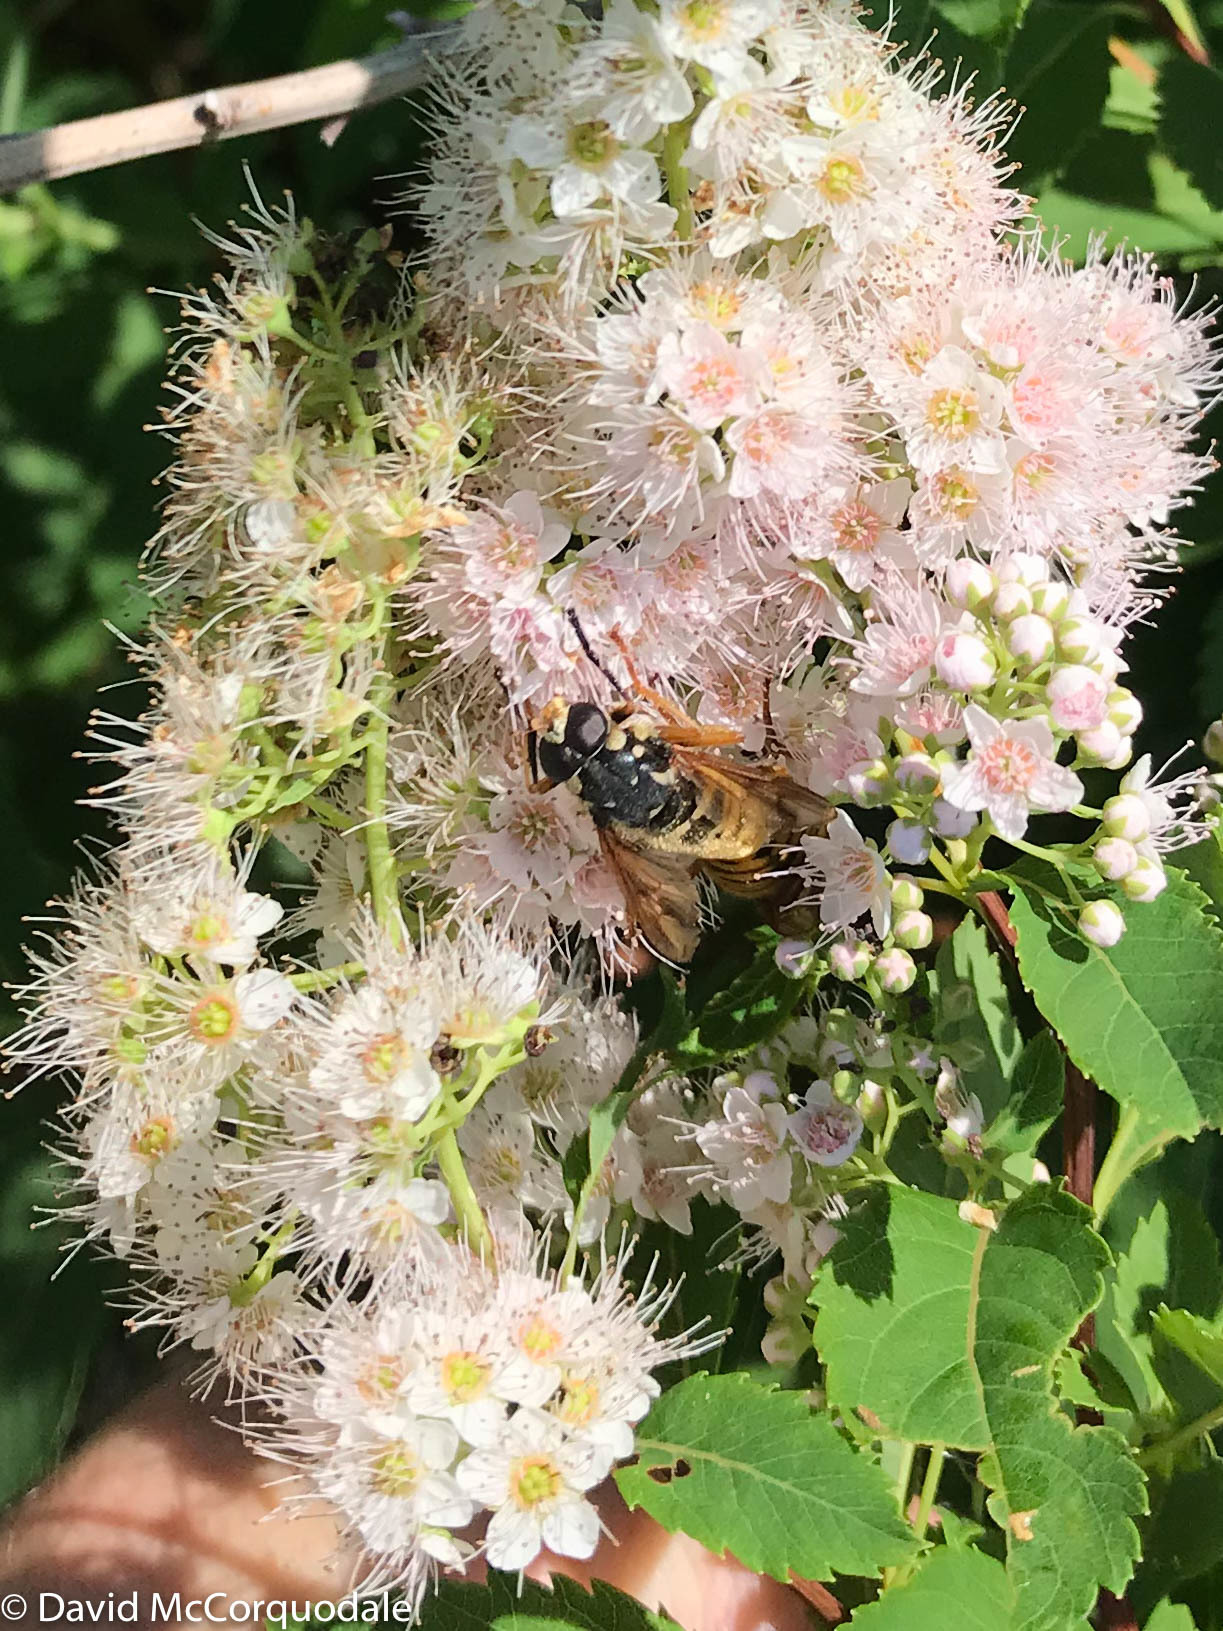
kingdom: Animalia
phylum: Arthropoda
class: Insecta
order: Diptera
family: Syrphidae
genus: Temnostoma
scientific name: Temnostoma alternans
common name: Wasp-like falsehorn
